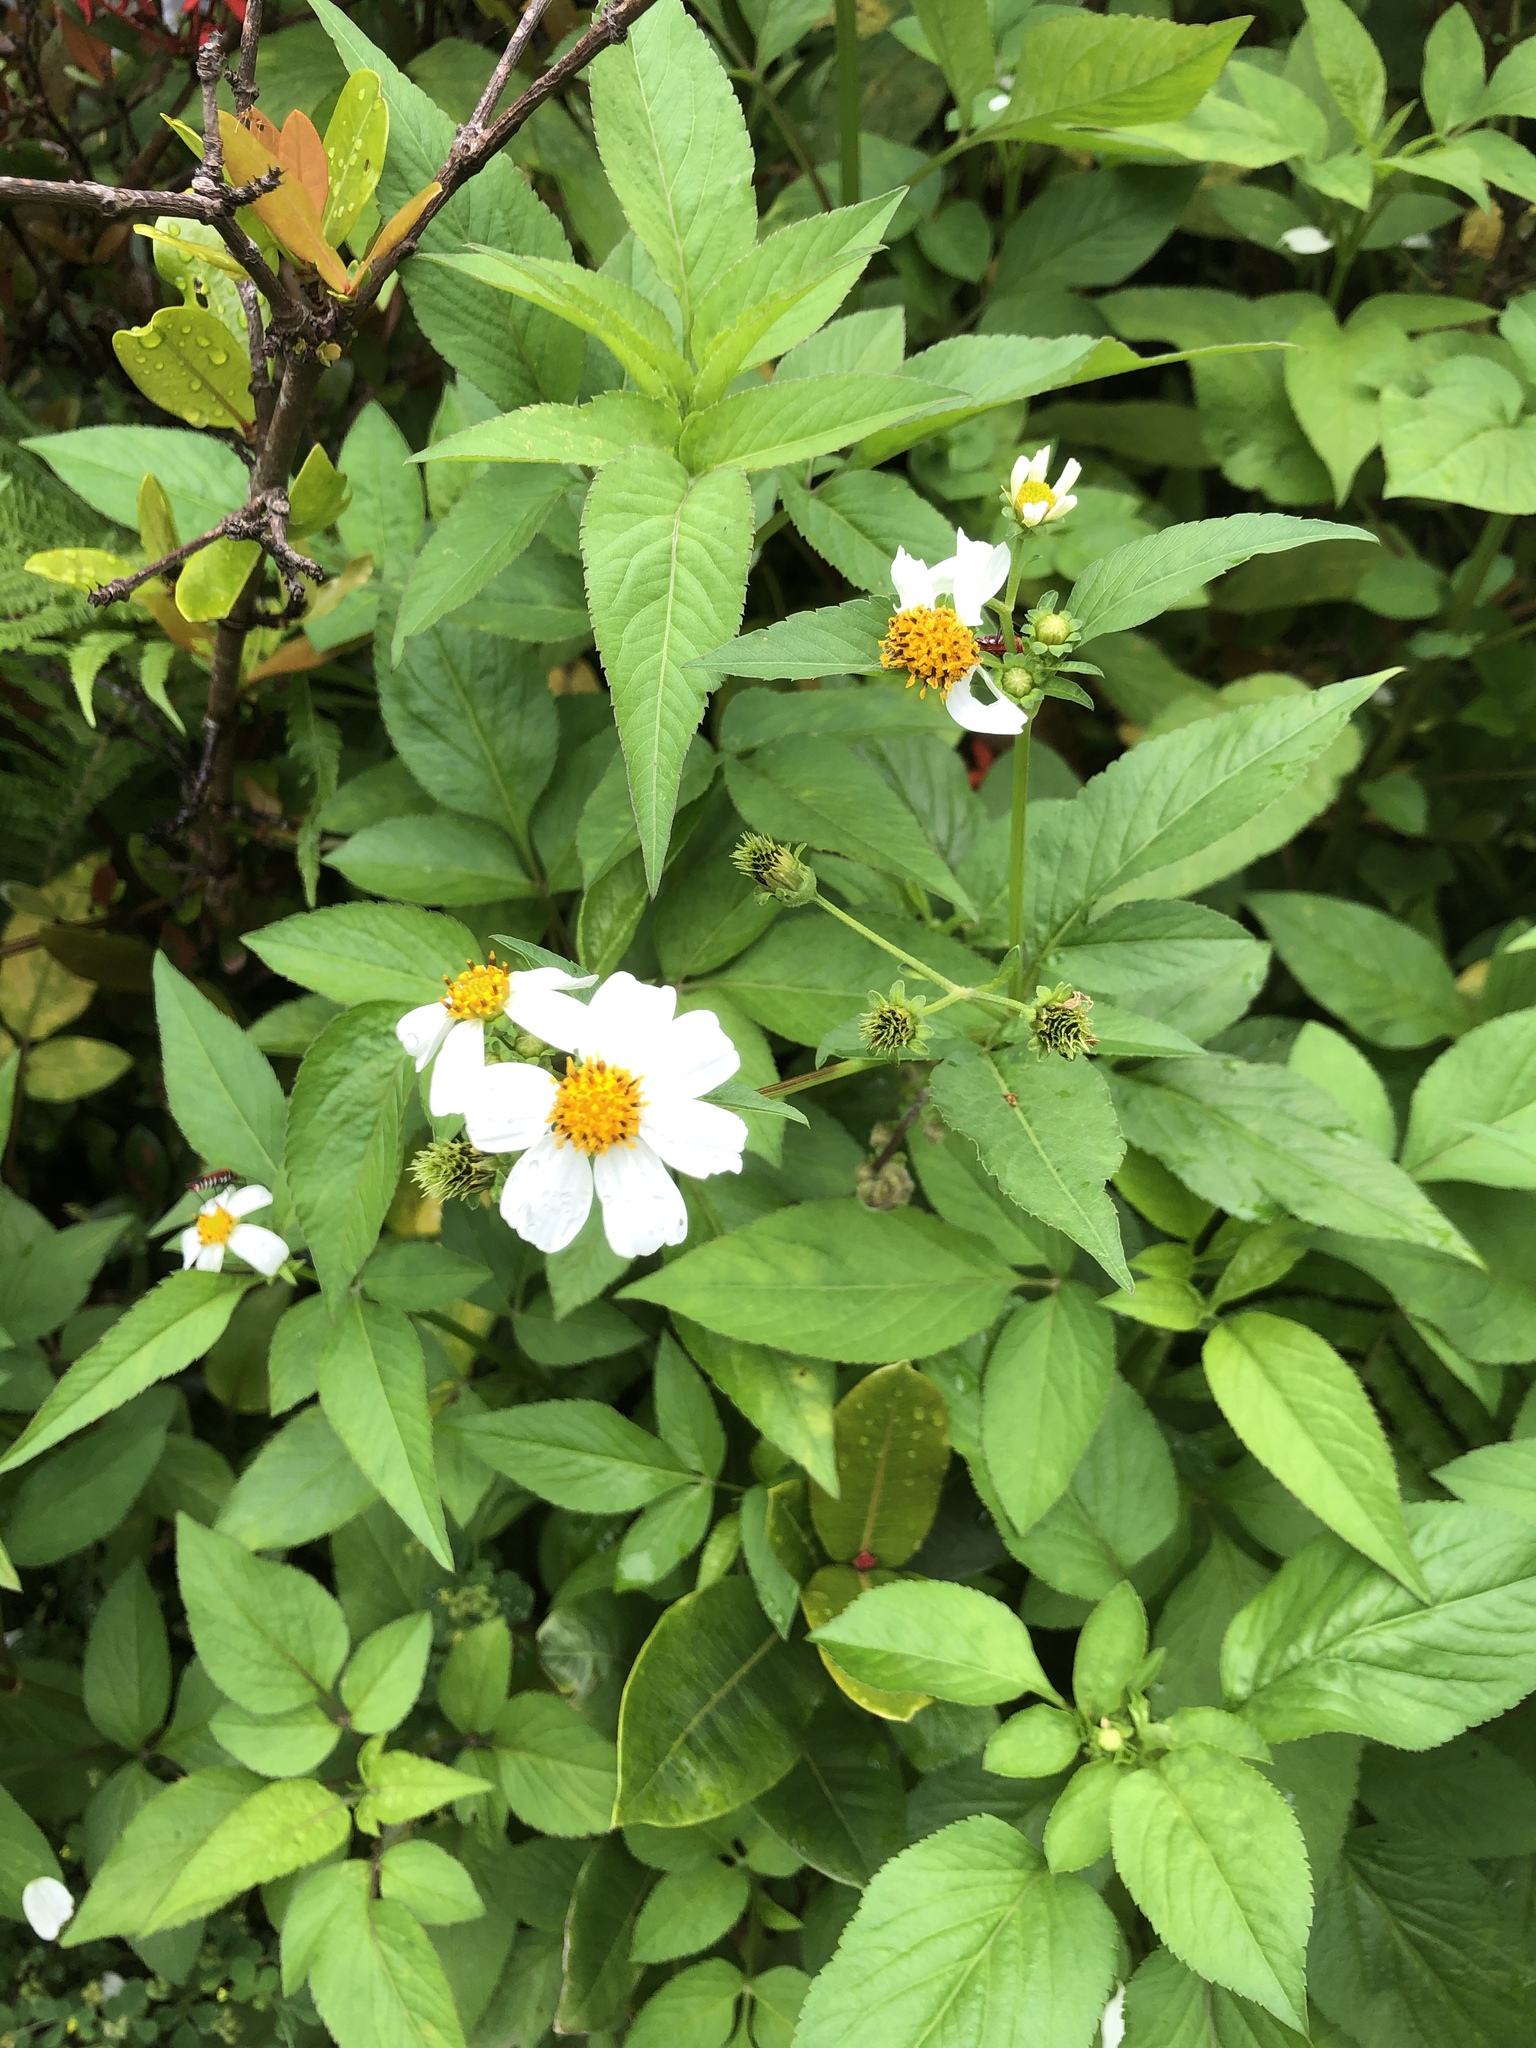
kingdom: Plantae
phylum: Tracheophyta
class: Magnoliopsida
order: Asterales
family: Asteraceae
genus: Bidens
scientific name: Bidens pilosa
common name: Black-jack
